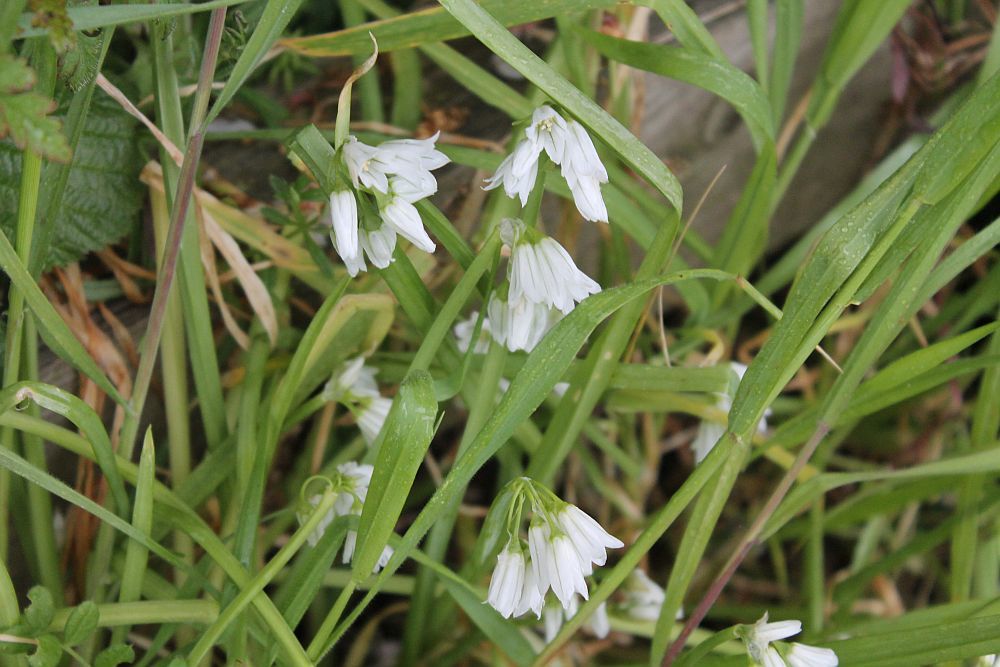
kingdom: Plantae
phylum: Tracheophyta
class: Liliopsida
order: Asparagales
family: Amaryllidaceae
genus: Allium
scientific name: Allium triquetrum
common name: Three-cornered garlic
